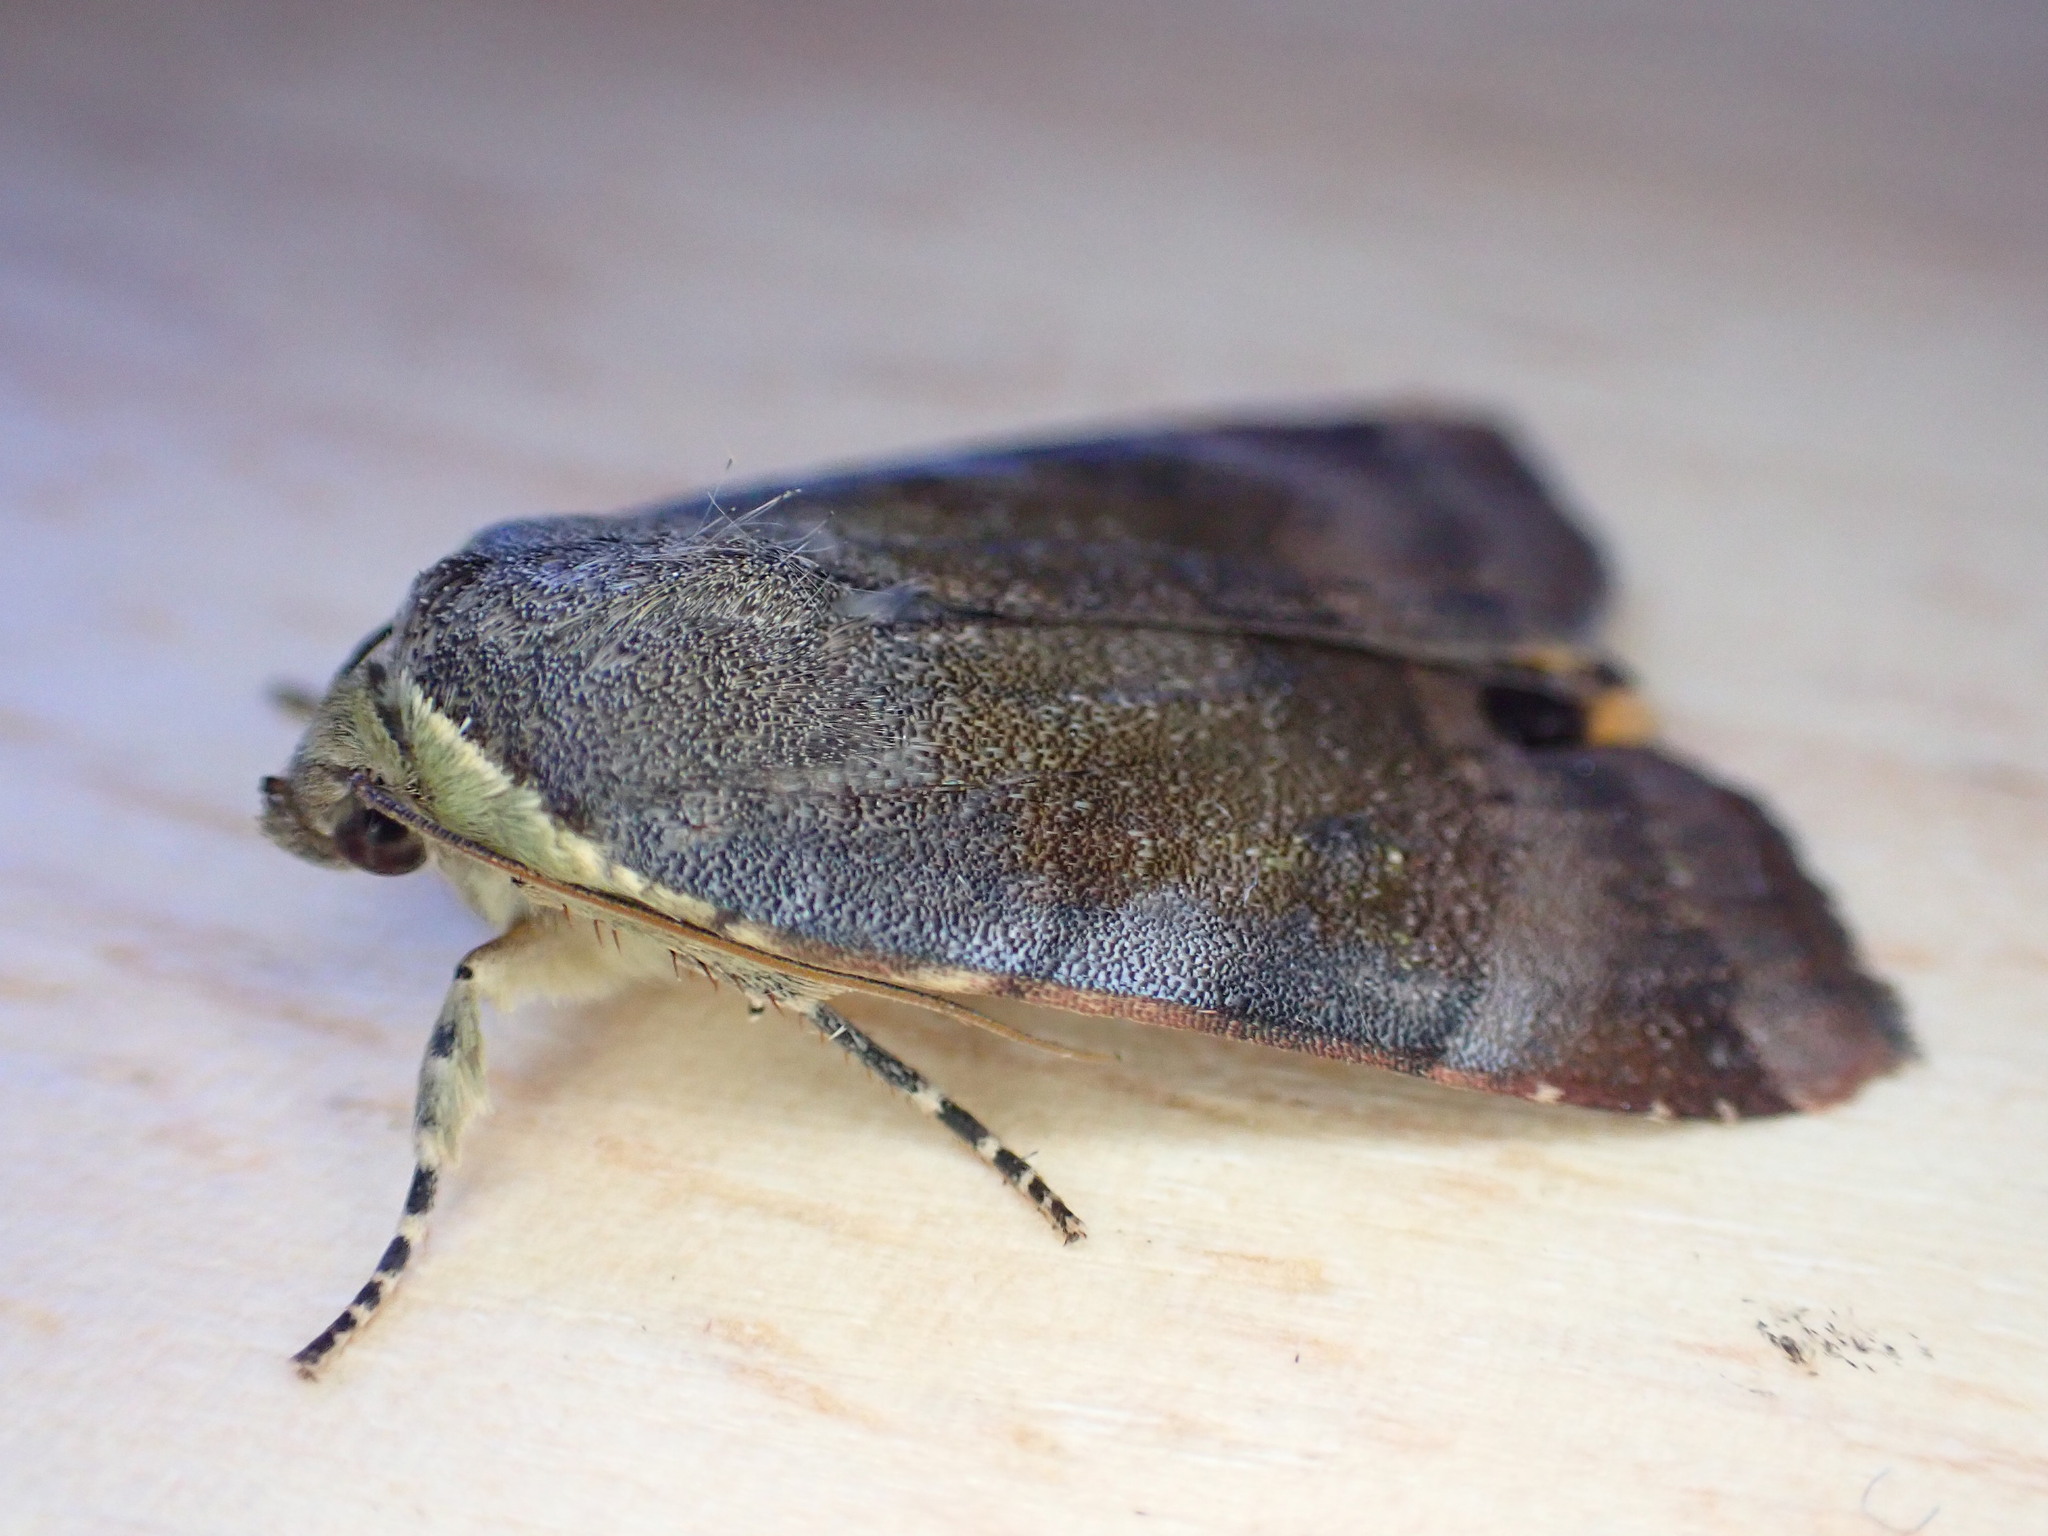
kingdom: Animalia
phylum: Arthropoda
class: Insecta
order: Lepidoptera
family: Noctuidae
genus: Noctua
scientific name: Noctua janthe
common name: Lesser broad-bordered yellow underwing
